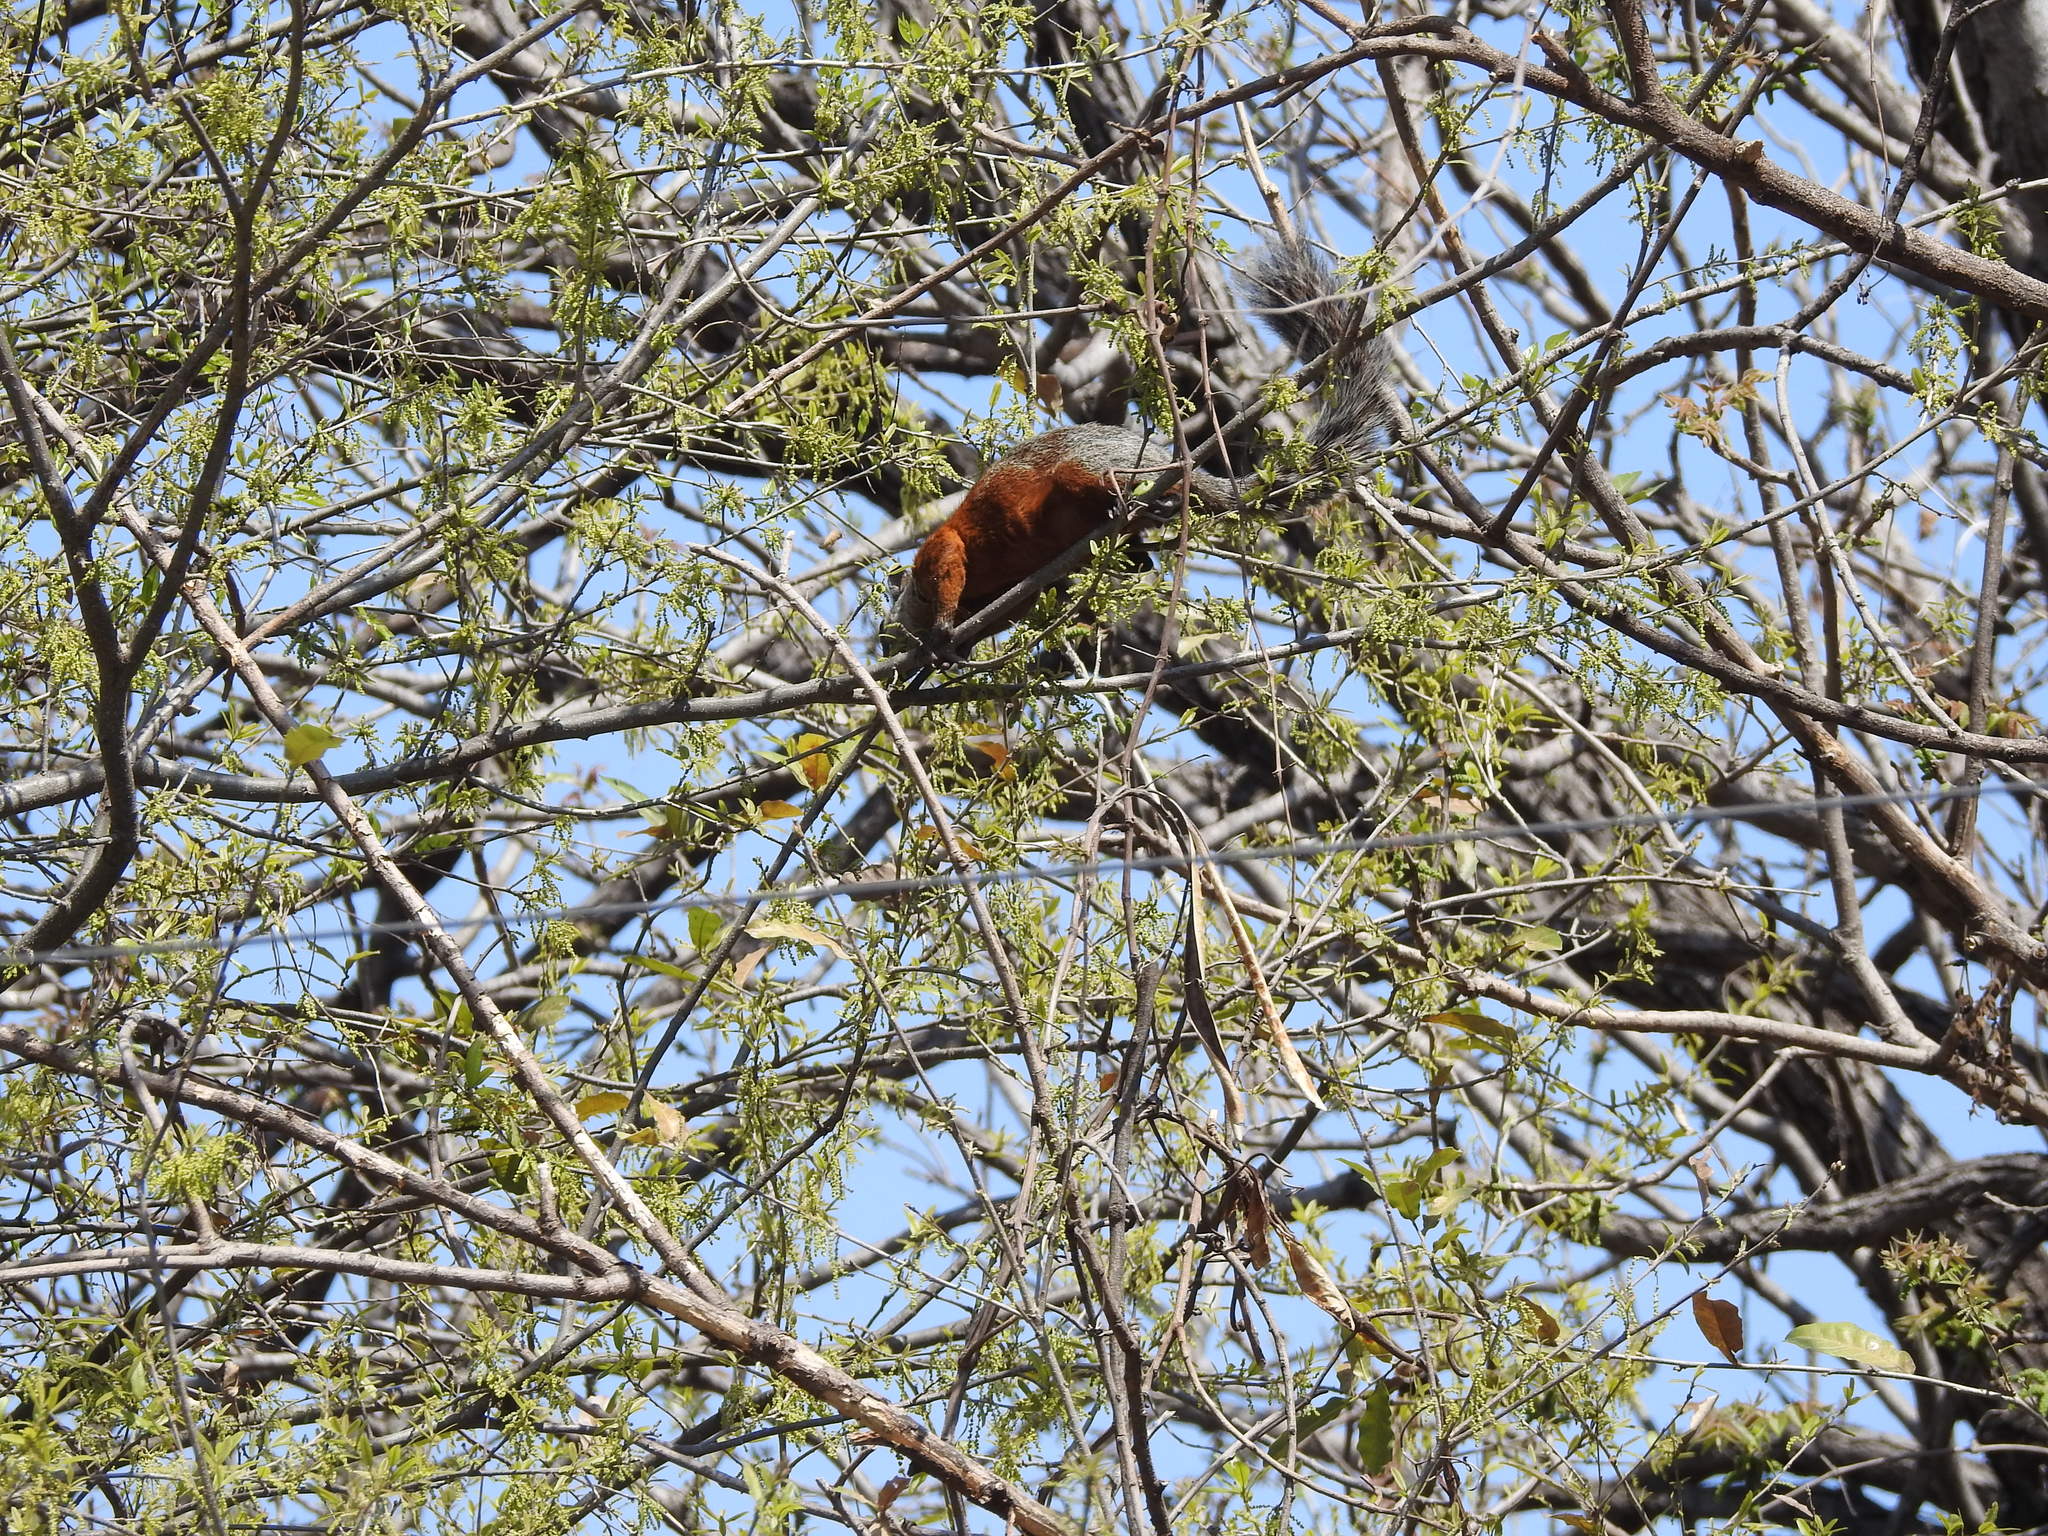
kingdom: Animalia
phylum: Chordata
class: Mammalia
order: Rodentia
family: Sciuridae
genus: Sciurus
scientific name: Sciurus aureogaster
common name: Red-bellied squirrel
